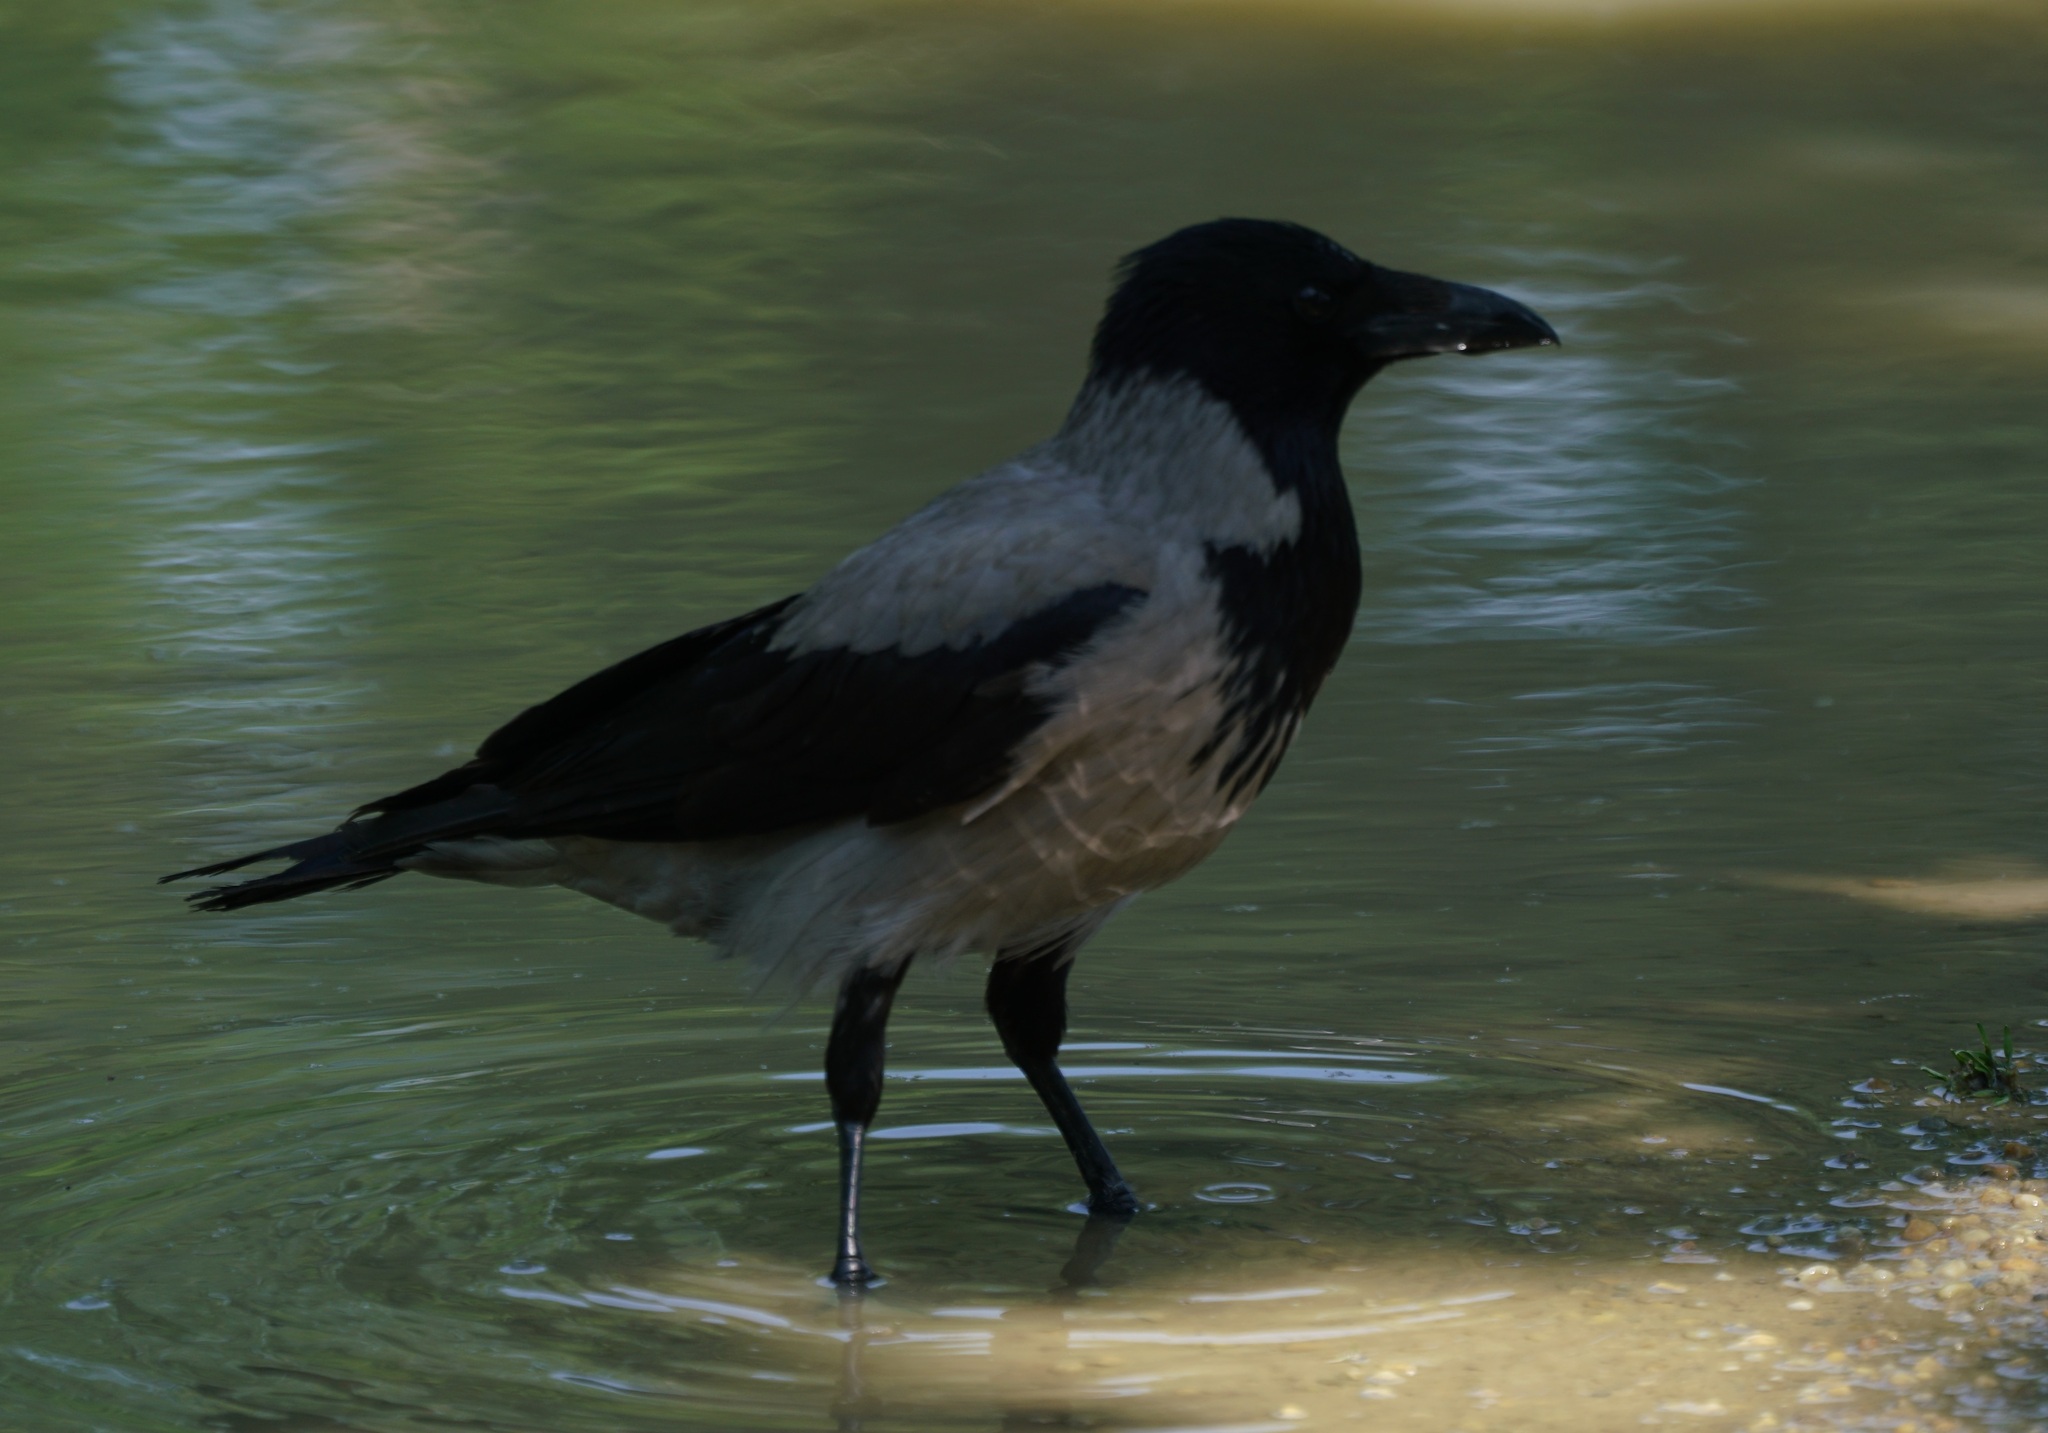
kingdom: Animalia
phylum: Chordata
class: Aves
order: Passeriformes
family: Corvidae
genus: Corvus
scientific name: Corvus cornix
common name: Hooded crow
